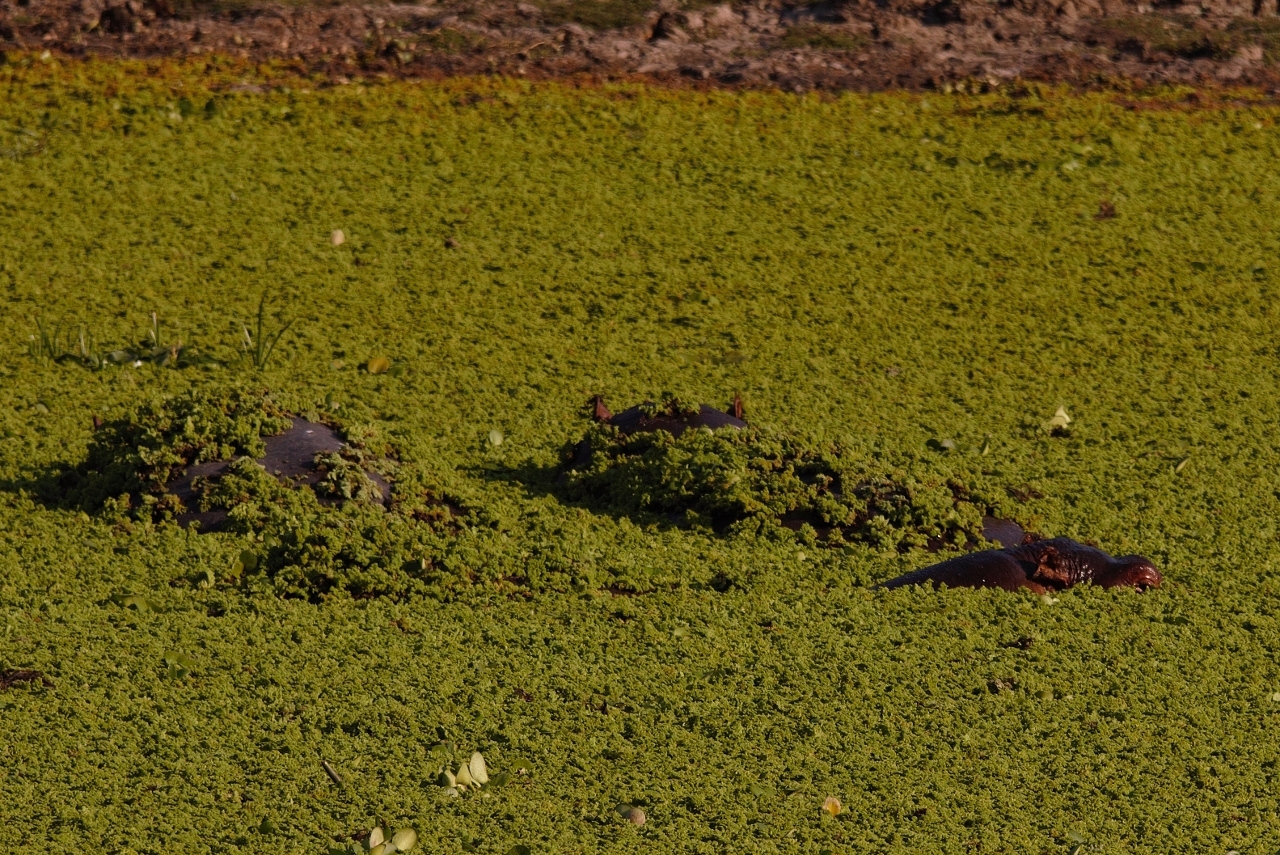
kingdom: Animalia
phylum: Chordata
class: Mammalia
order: Artiodactyla
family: Hippopotamidae
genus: Hippopotamus
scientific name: Hippopotamus amphibius
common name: Common hippopotamus
